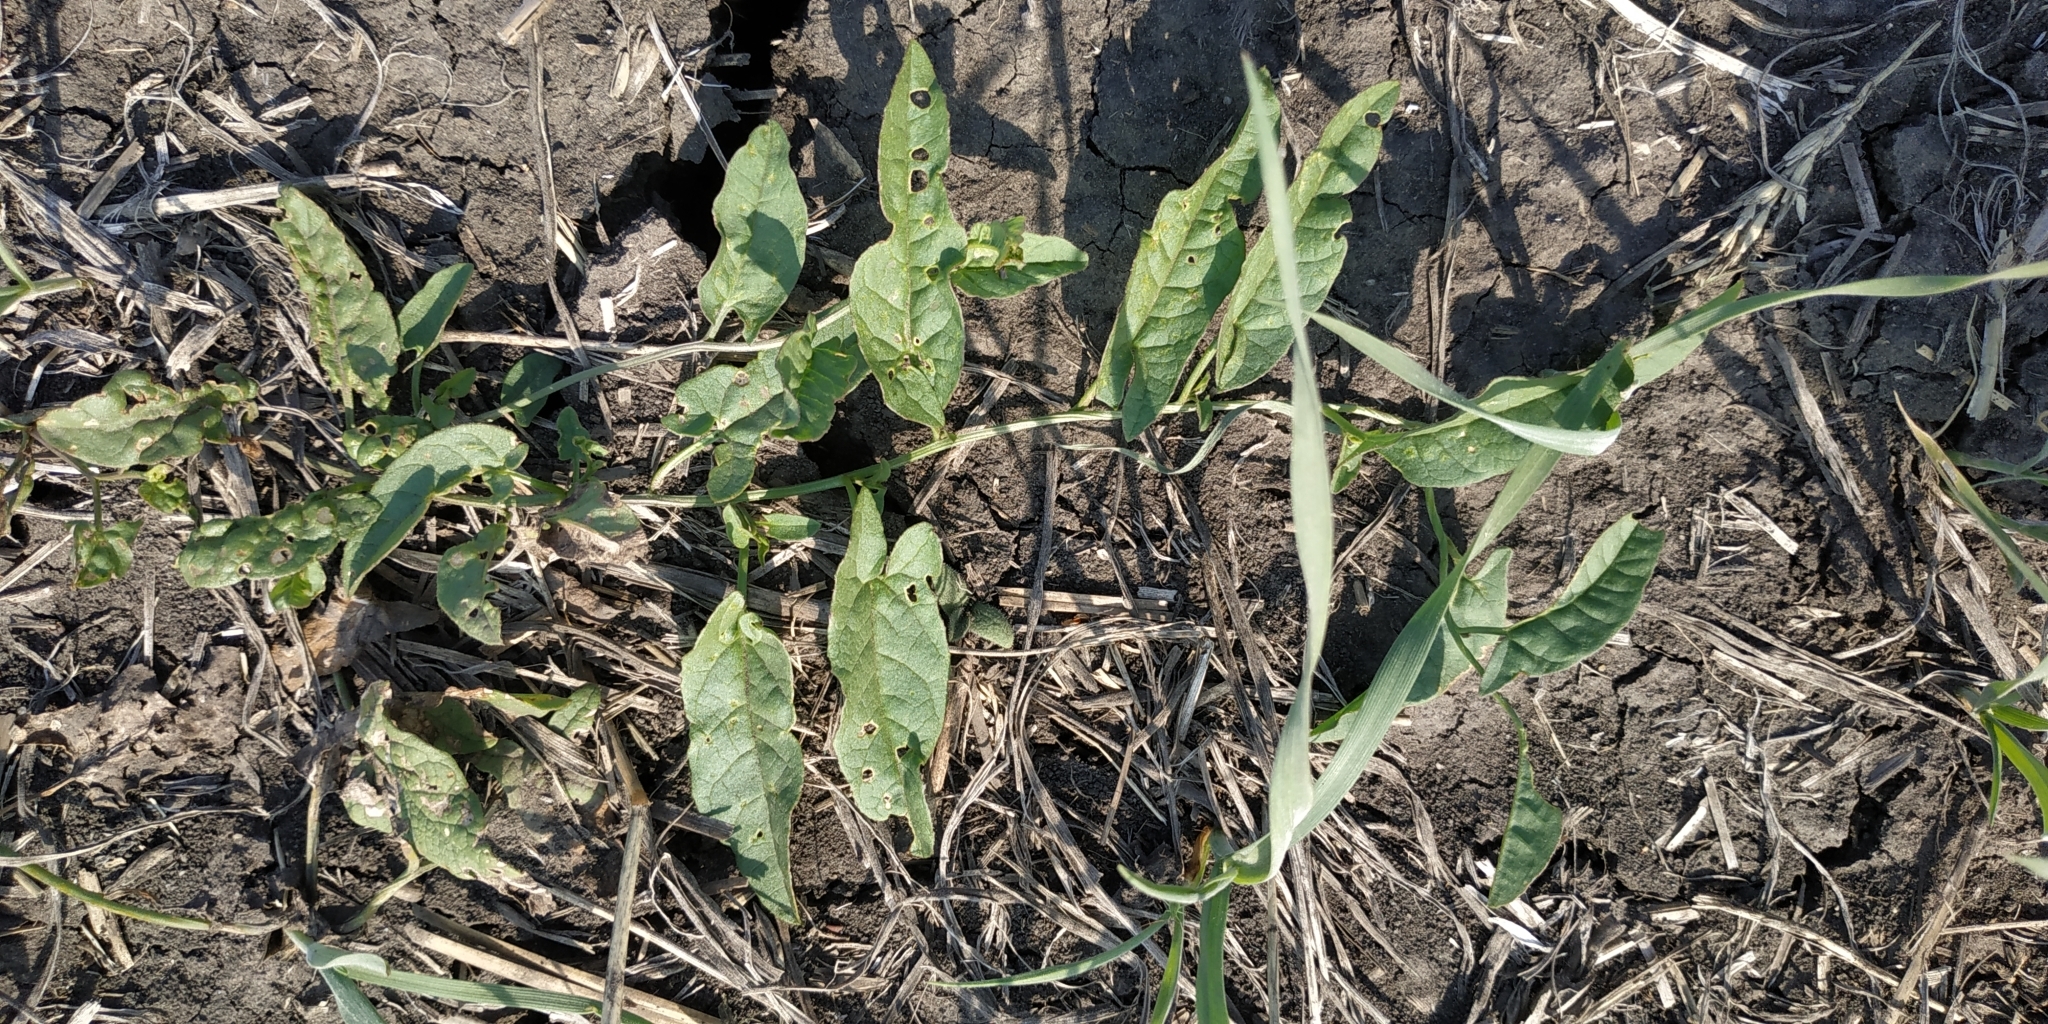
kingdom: Plantae
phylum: Tracheophyta
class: Magnoliopsida
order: Solanales
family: Convolvulaceae
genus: Convolvulus
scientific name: Convolvulus arvensis
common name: Field bindweed
